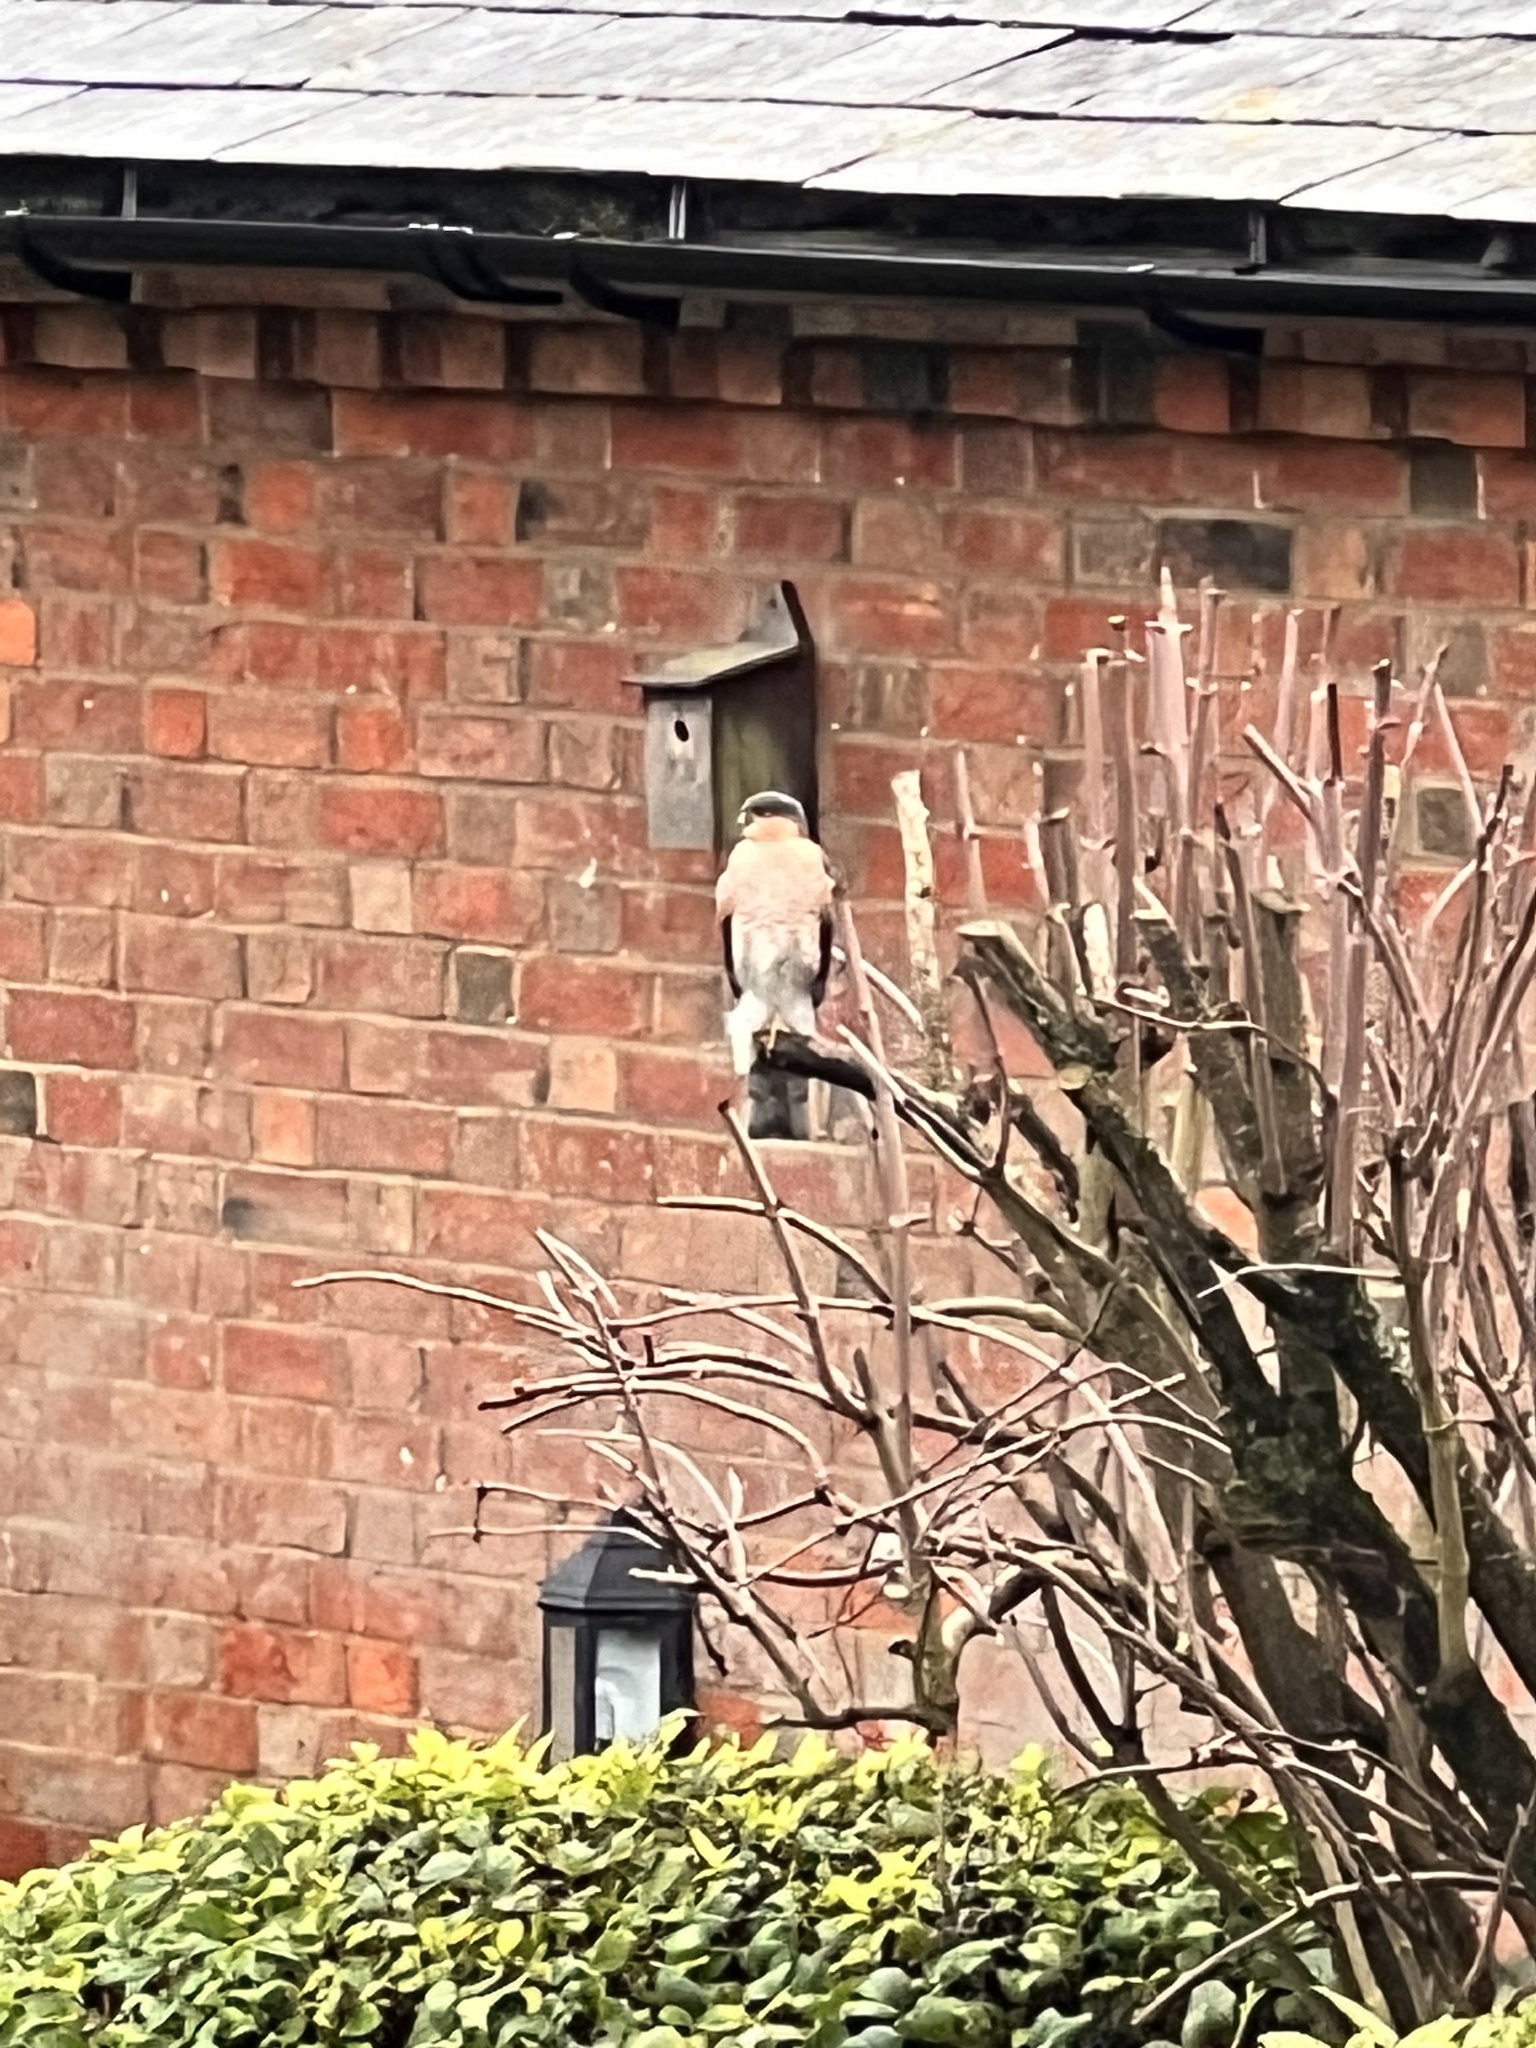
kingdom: Animalia
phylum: Chordata
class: Aves
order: Accipitriformes
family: Accipitridae
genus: Accipiter
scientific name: Accipiter nisus
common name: Eurasian sparrowhawk
